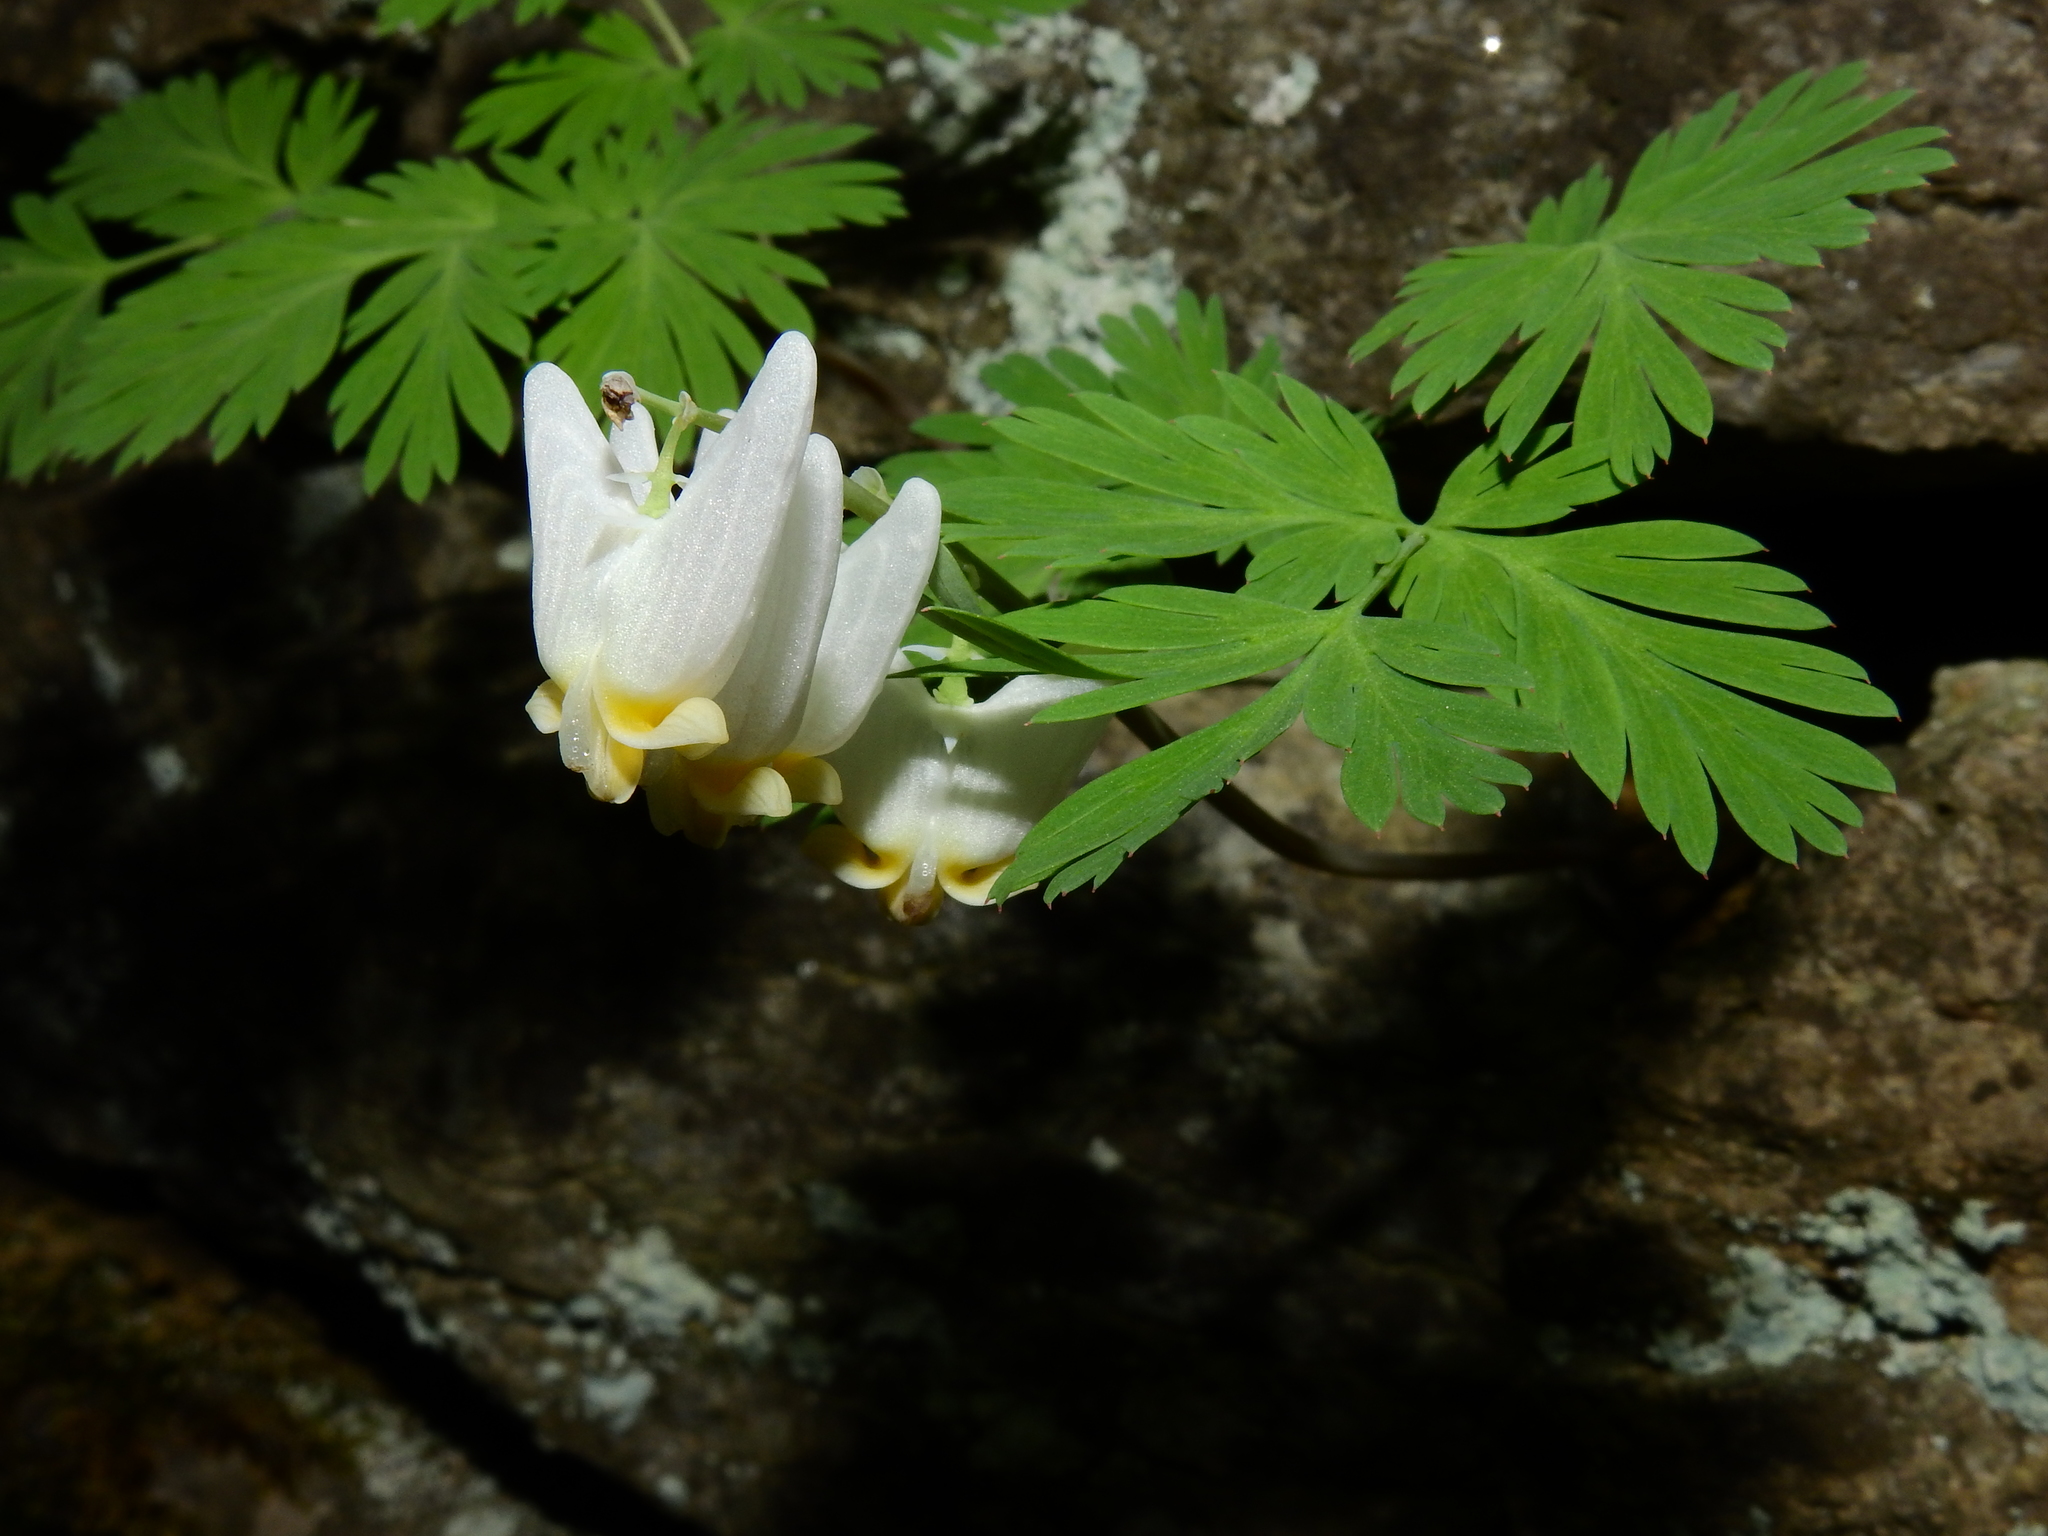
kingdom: Plantae
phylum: Tracheophyta
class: Magnoliopsida
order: Ranunculales
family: Papaveraceae
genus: Dicentra
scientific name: Dicentra cucullaria
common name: Dutchman's breeches
